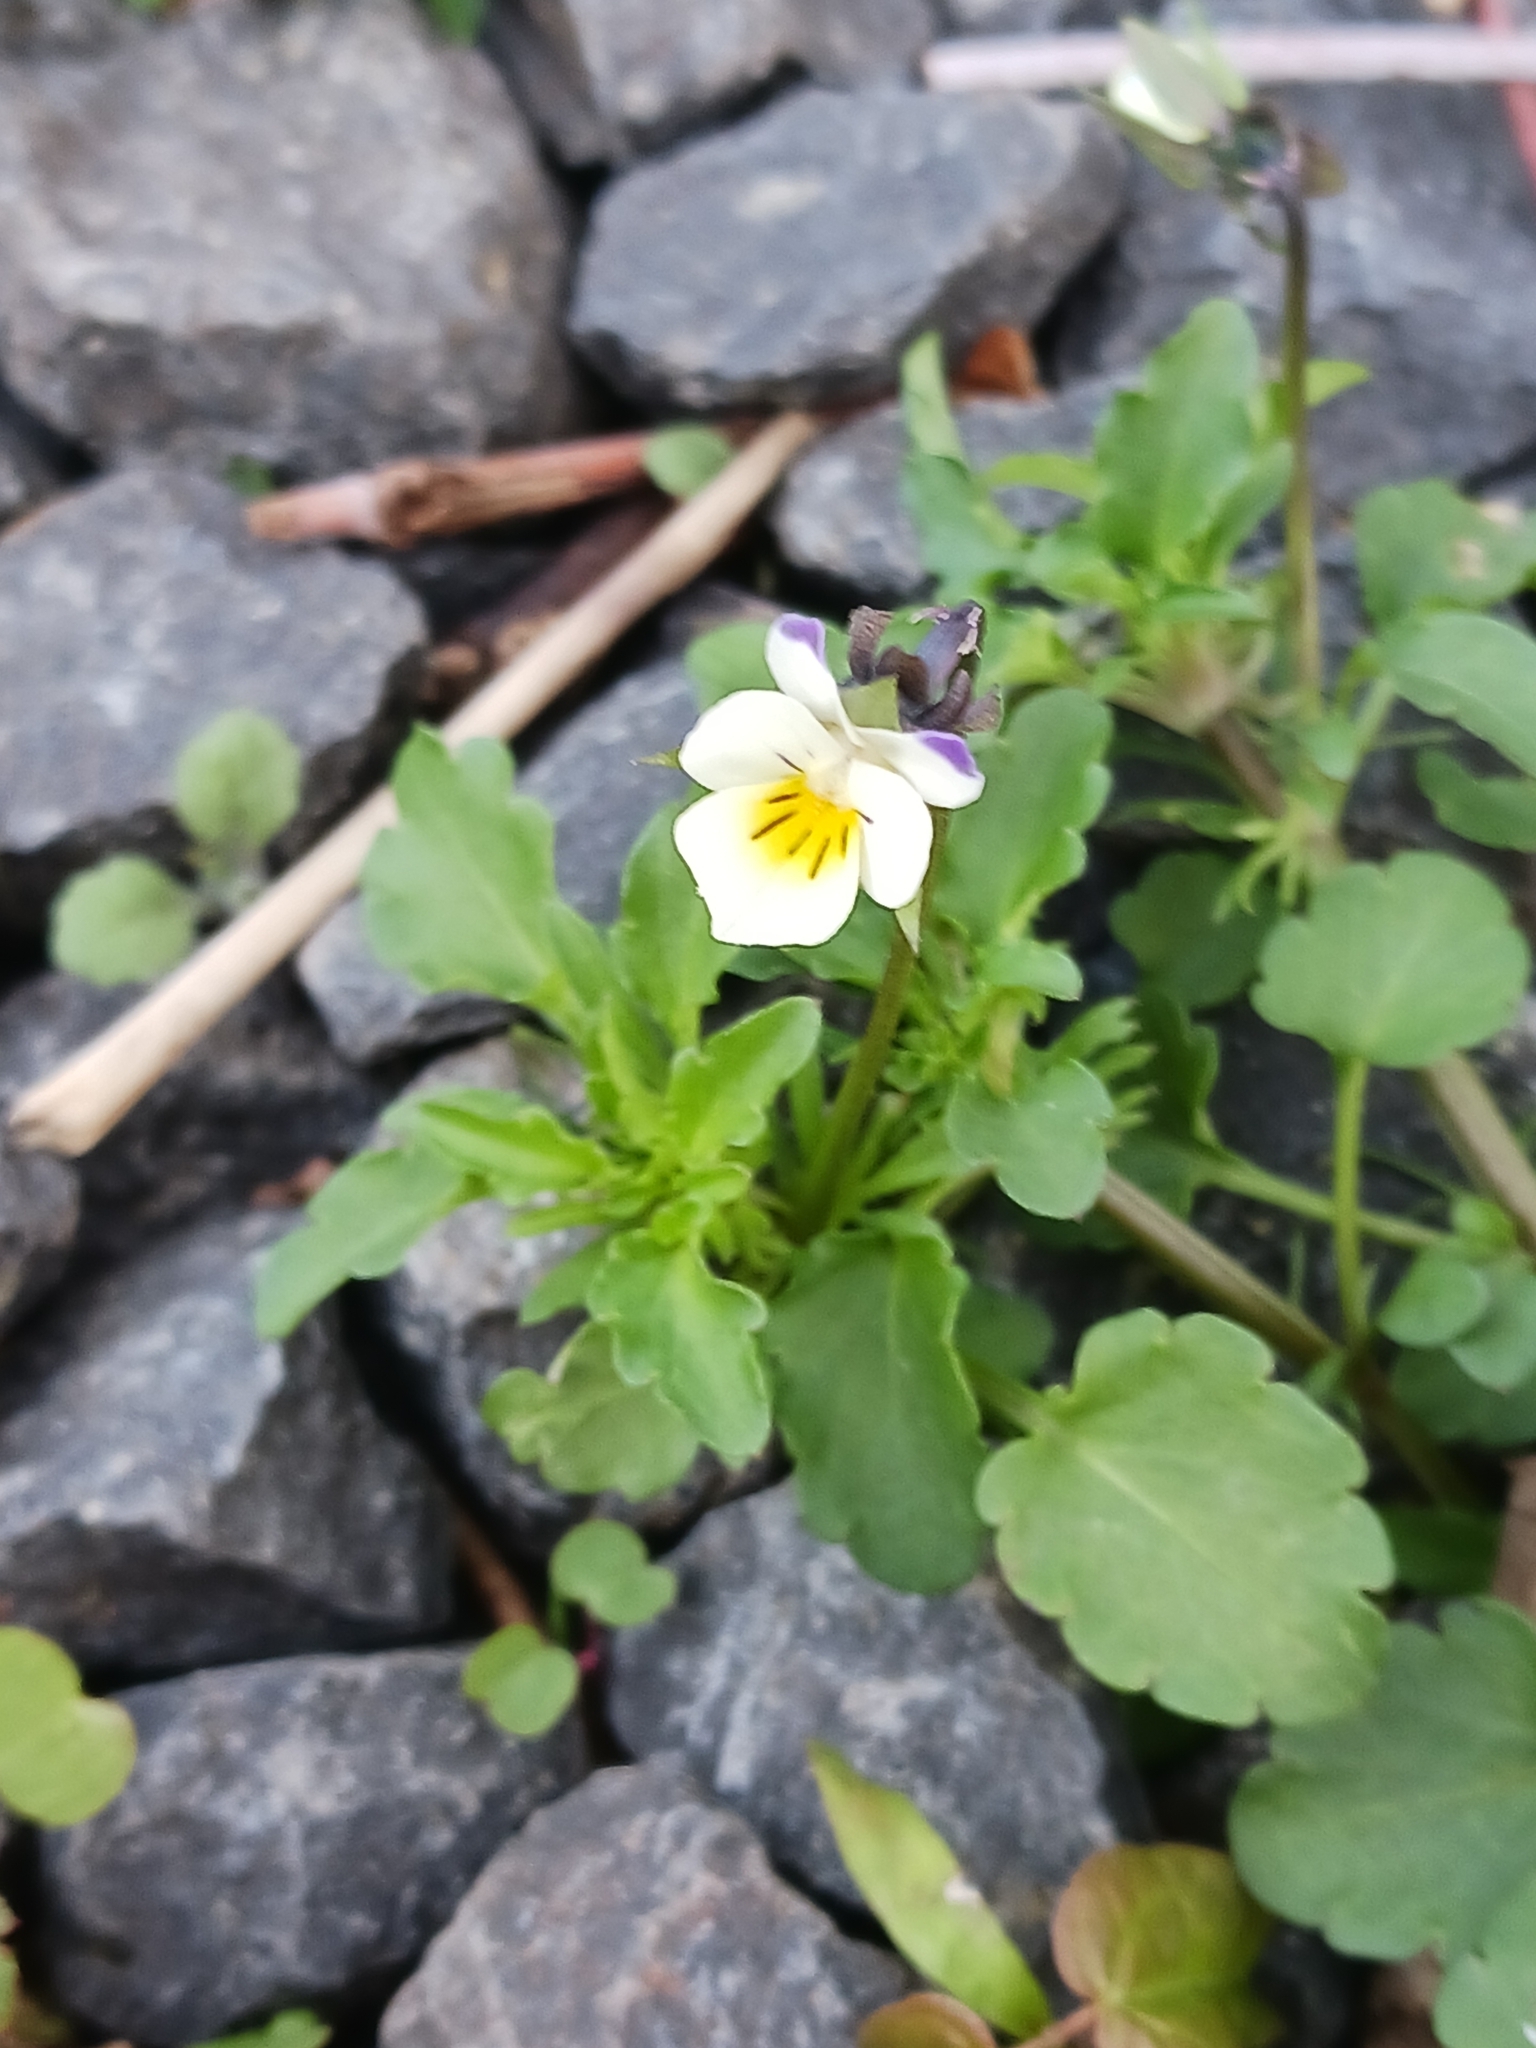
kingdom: Plantae
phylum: Tracheophyta
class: Magnoliopsida
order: Malpighiales
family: Violaceae
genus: Viola
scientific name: Viola arvensis
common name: Field pansy
